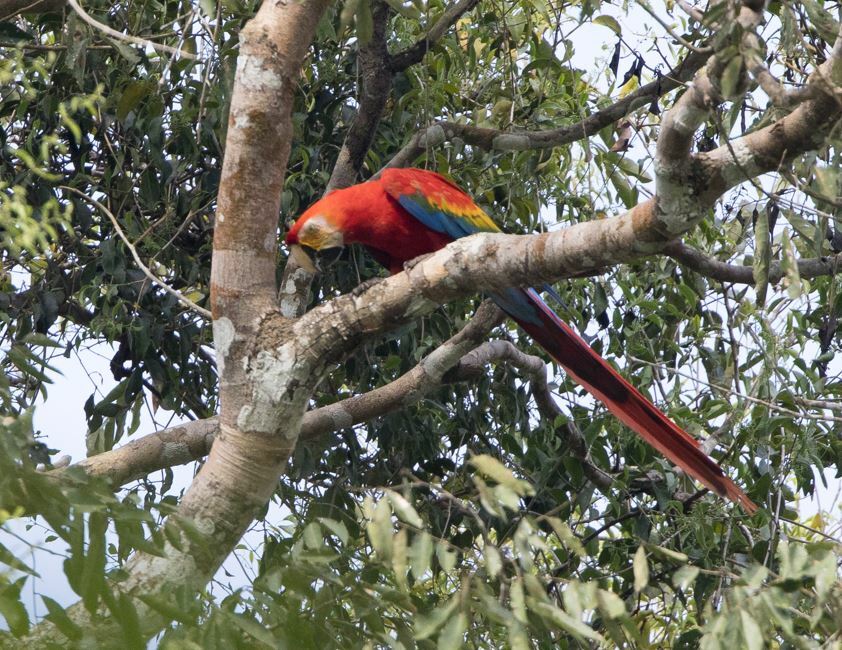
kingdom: Animalia
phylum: Chordata
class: Aves
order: Psittaciformes
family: Psittacidae
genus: Ara
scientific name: Ara macao
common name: Scarlet macaw
